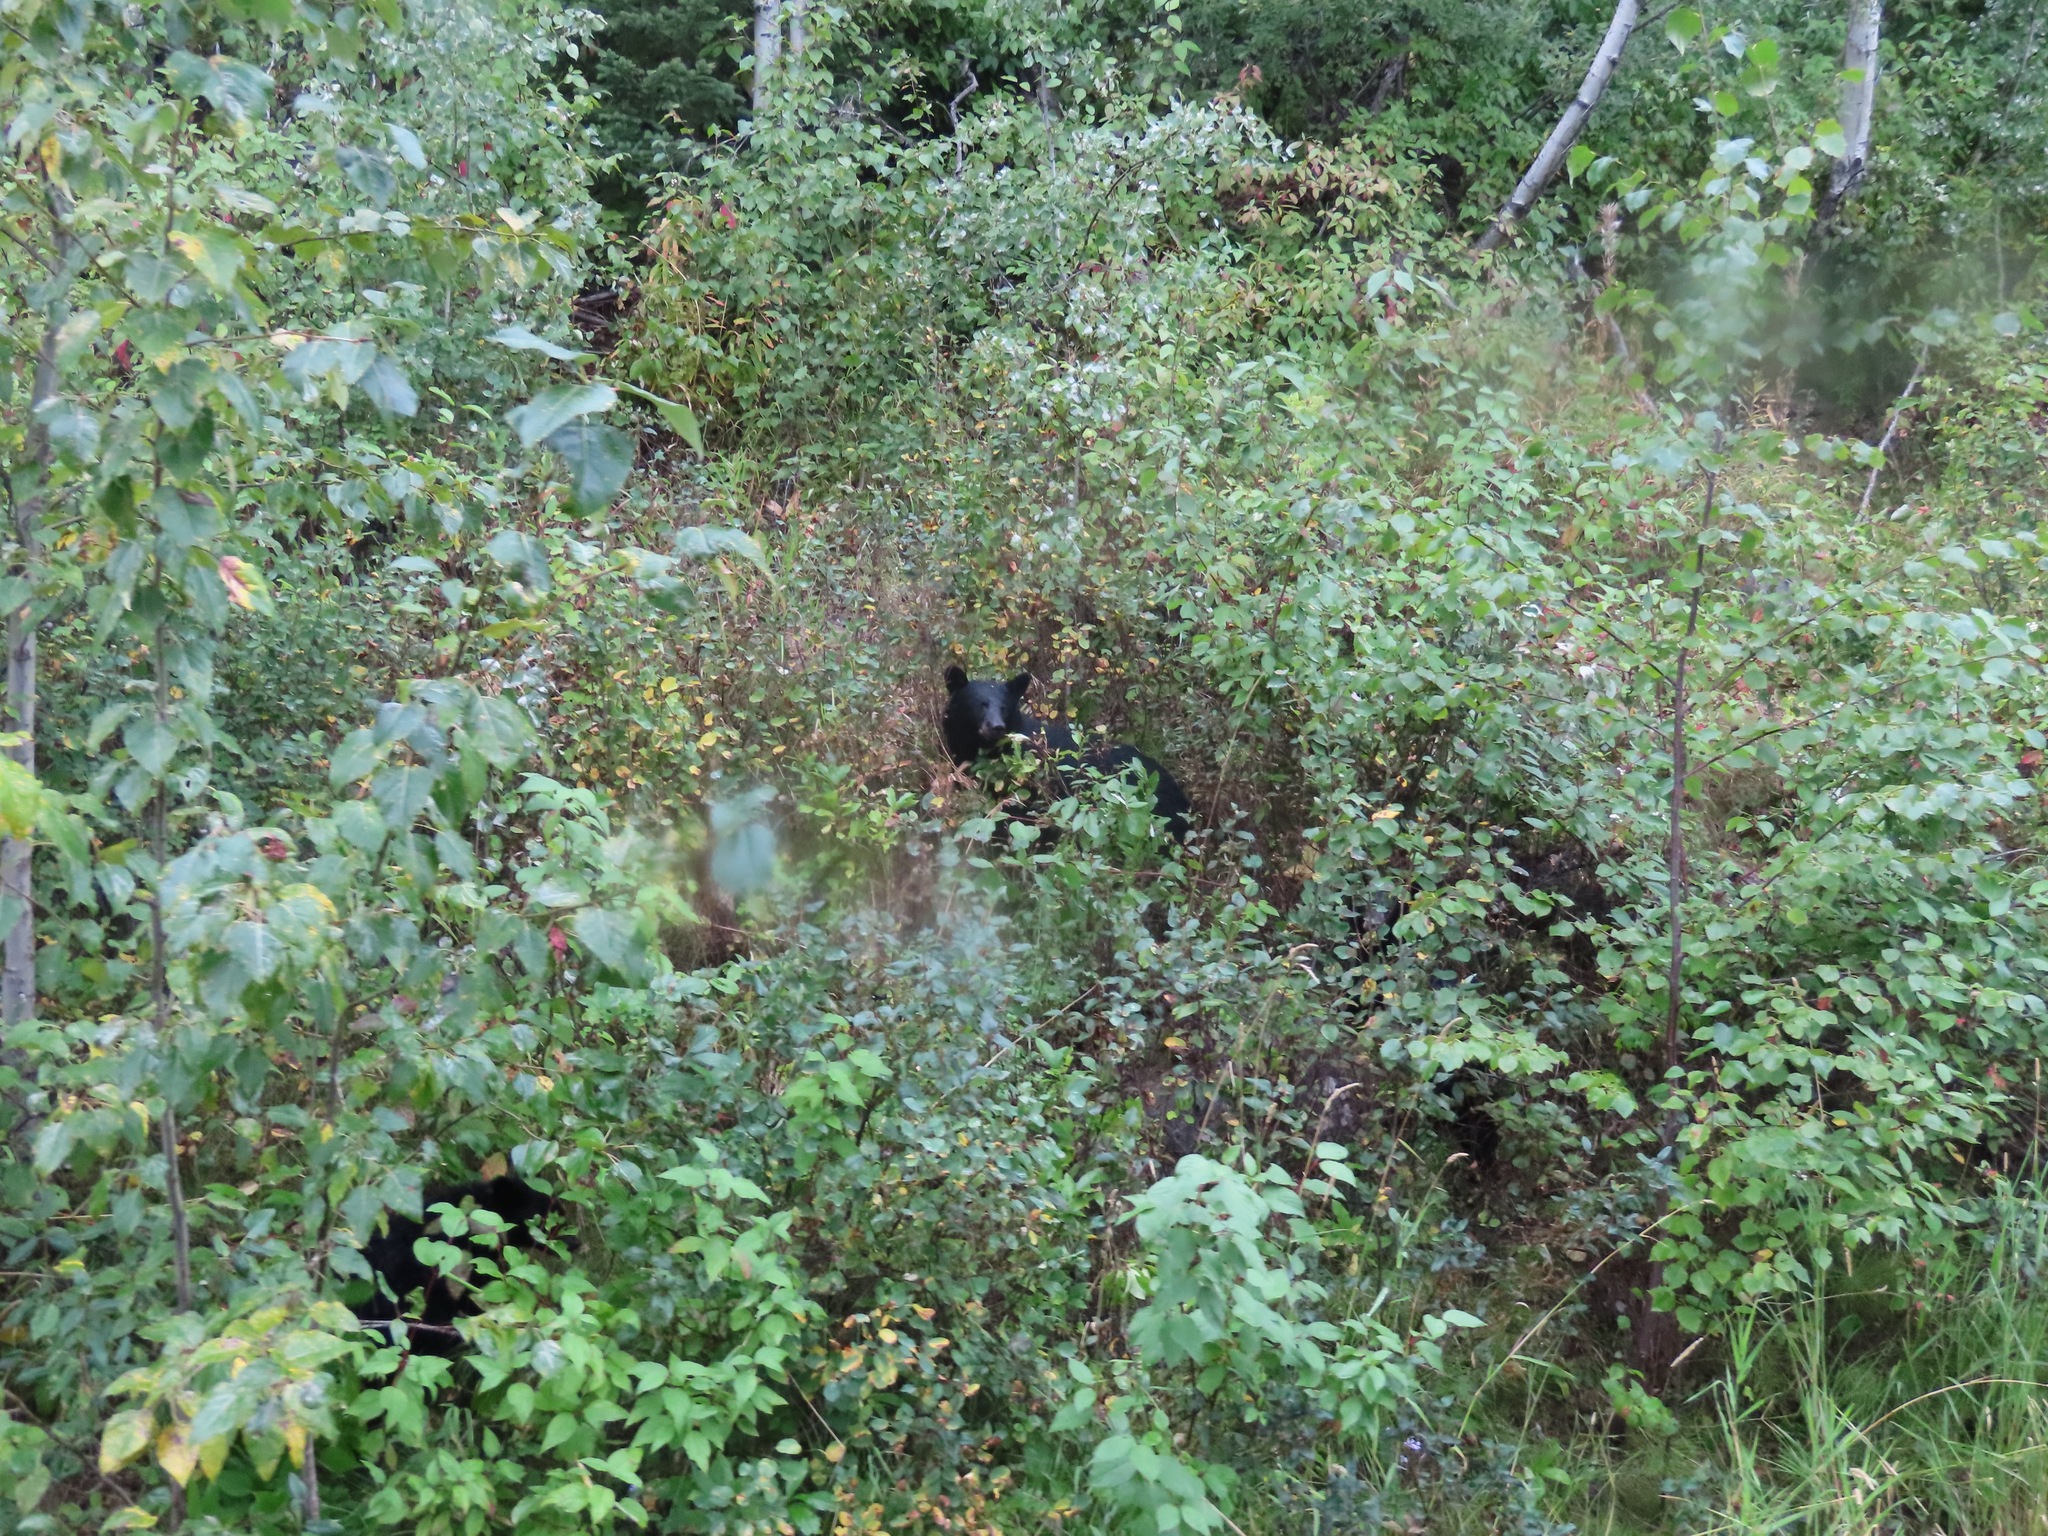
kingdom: Animalia
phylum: Chordata
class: Mammalia
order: Carnivora
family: Ursidae
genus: Ursus
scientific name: Ursus americanus
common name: American black bear
